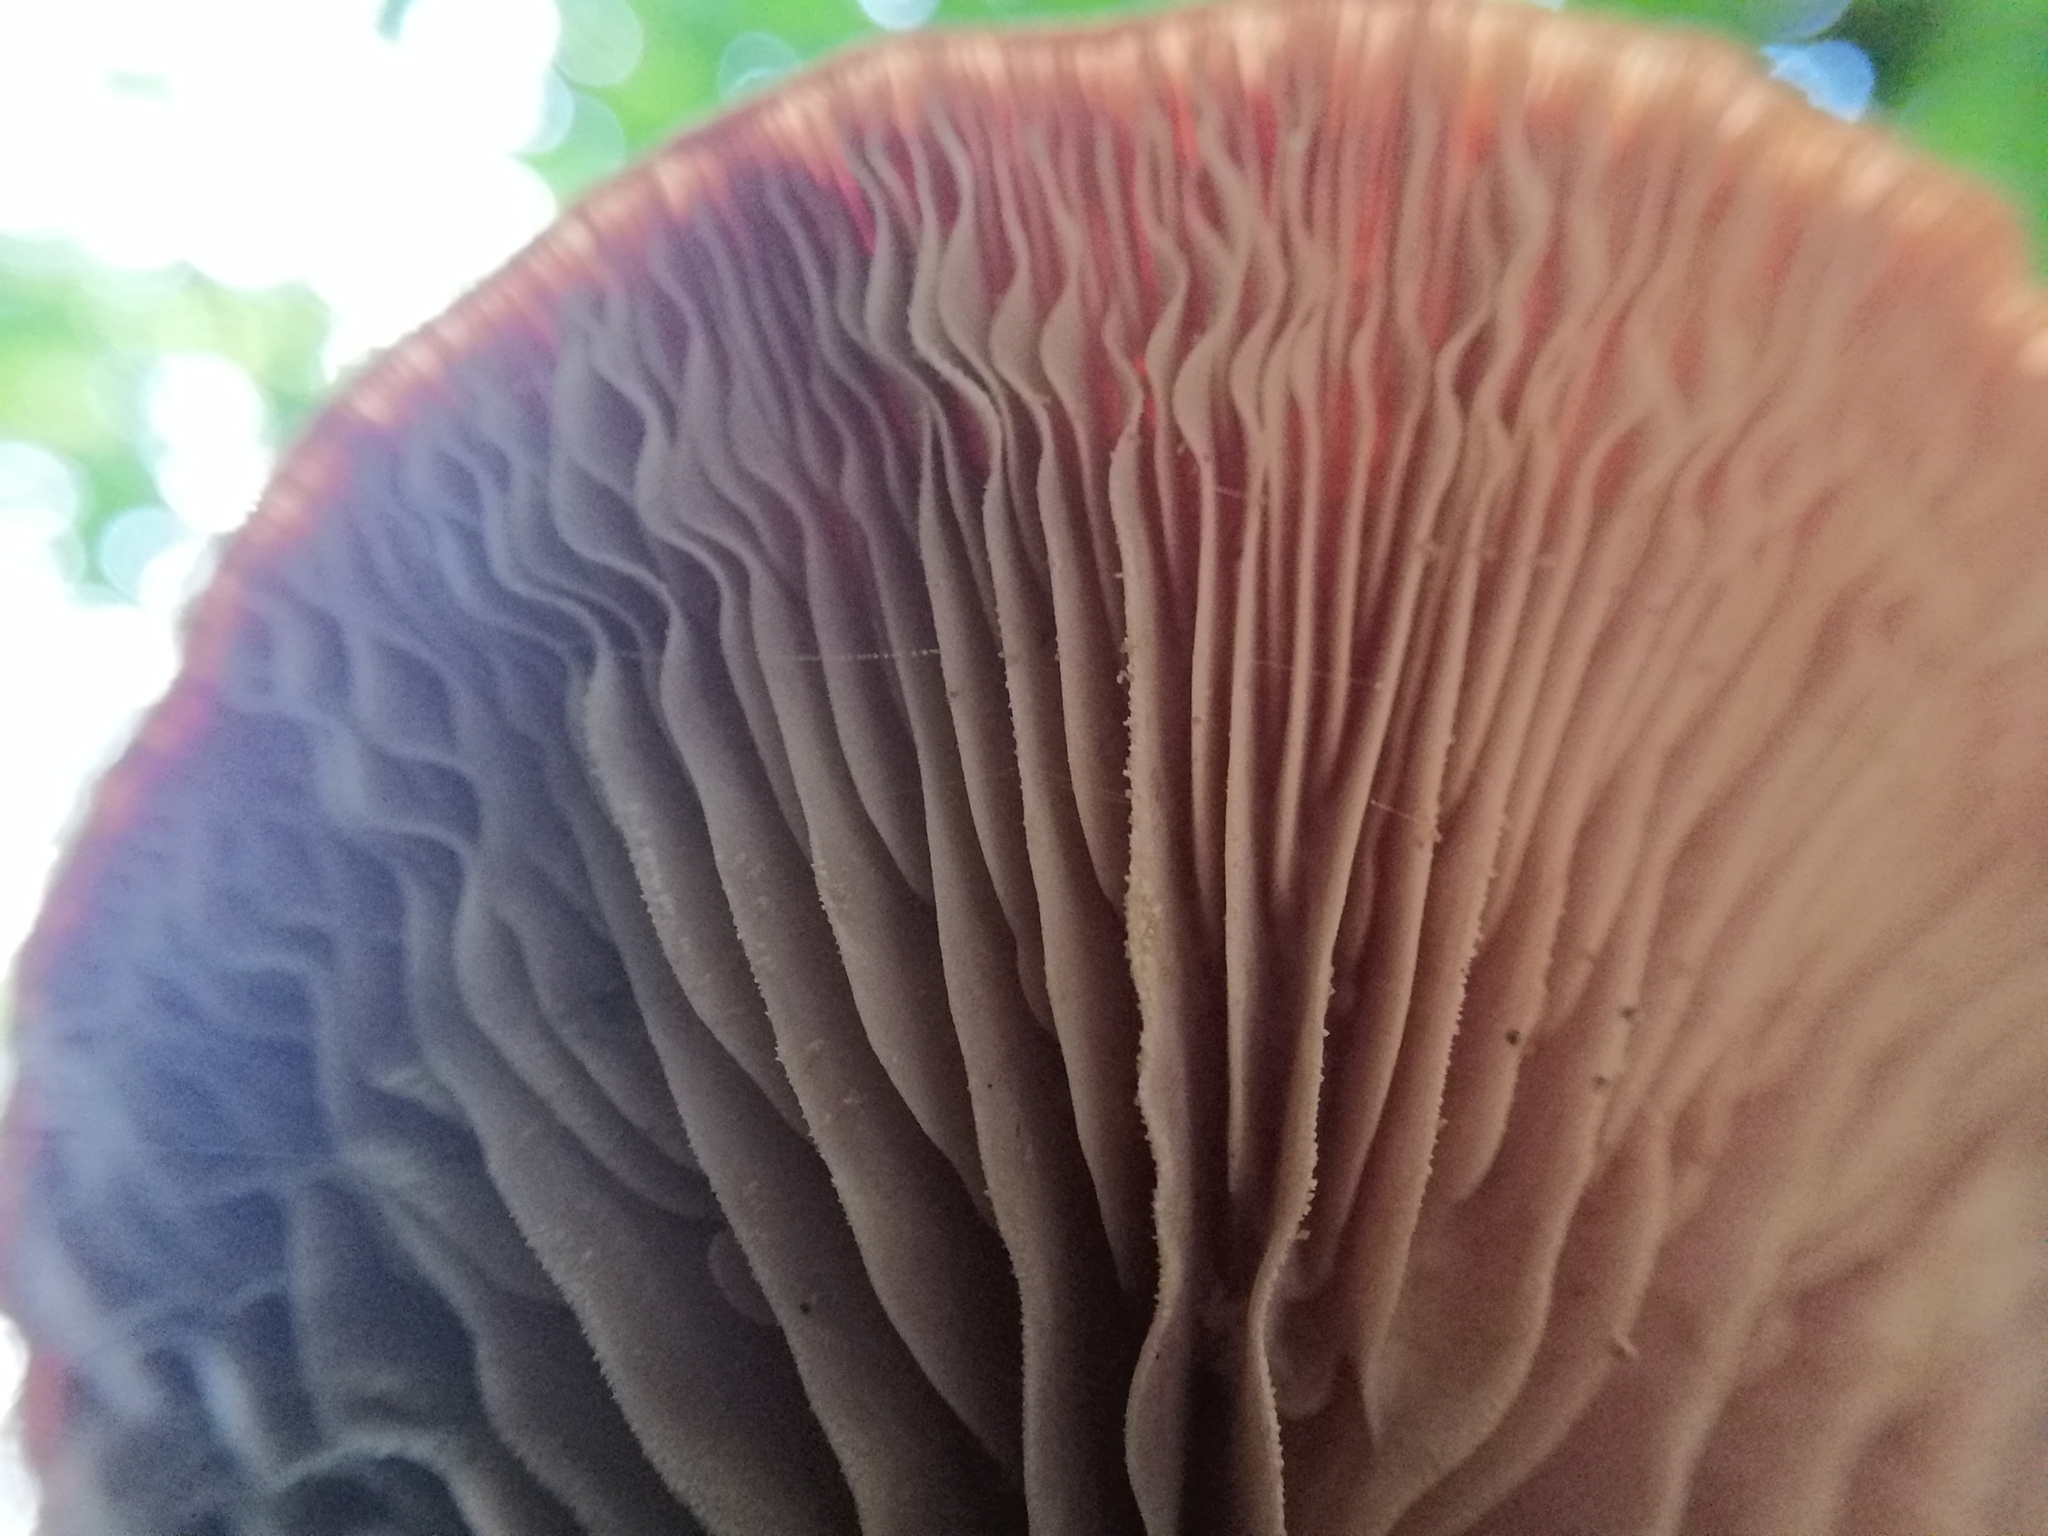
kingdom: Fungi
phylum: Basidiomycota
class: Agaricomycetes
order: Agaricales
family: Physalacriaceae
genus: Rhodotus
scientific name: Rhodotus palmatus
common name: Wrinkled peach
